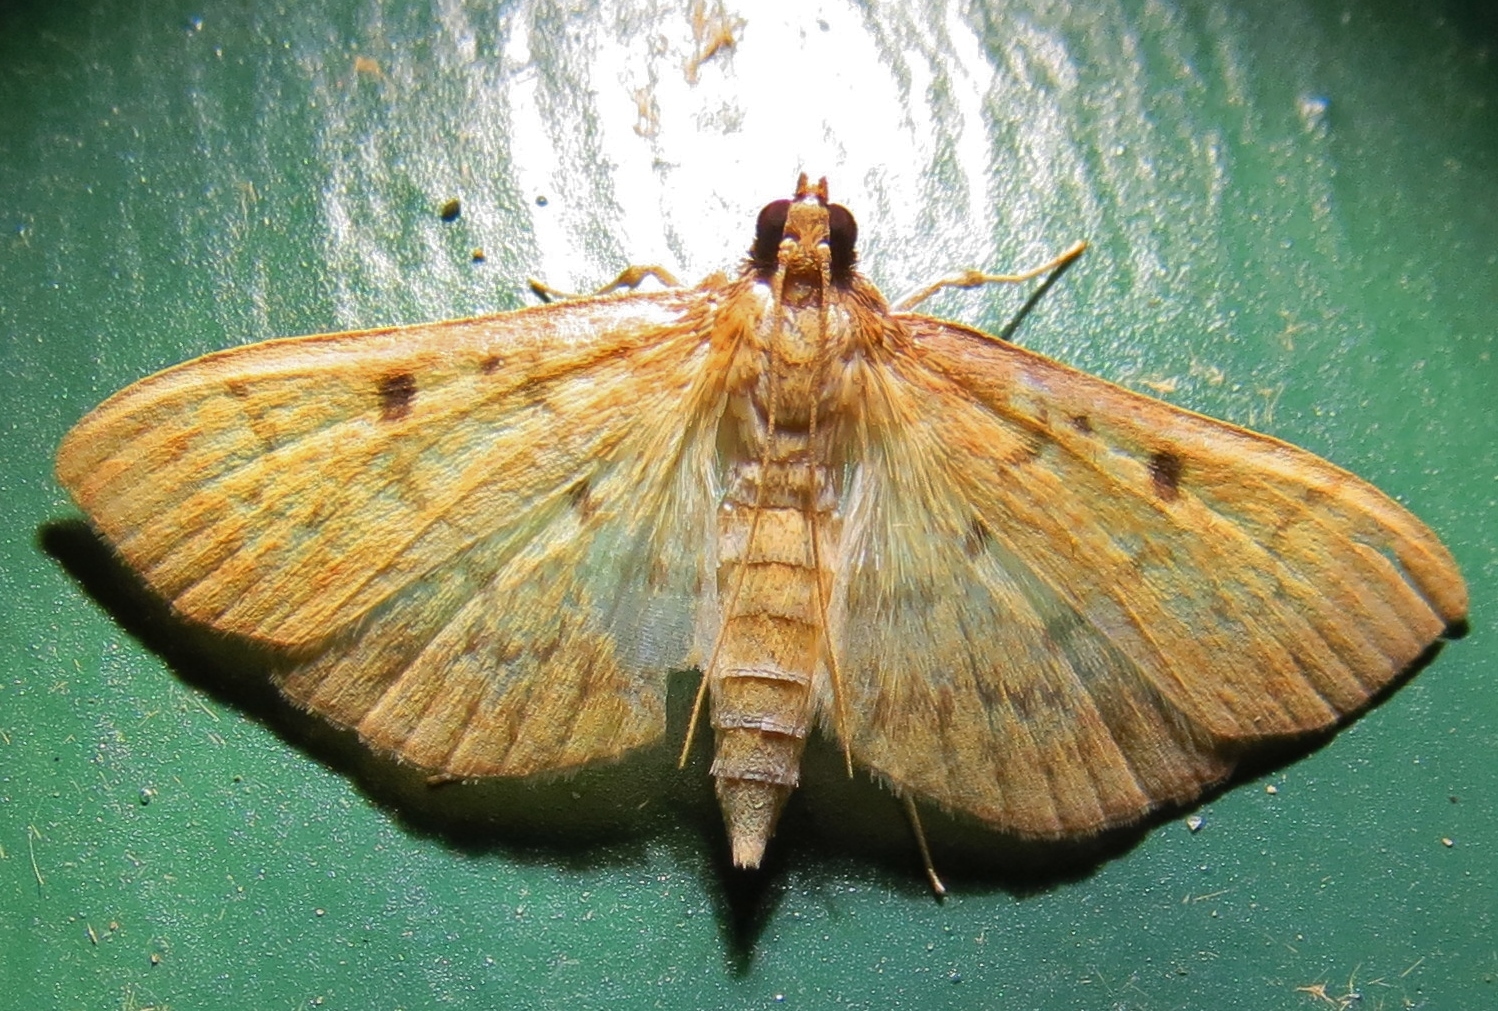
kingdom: Animalia
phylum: Arthropoda
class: Insecta
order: Lepidoptera
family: Crambidae
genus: Herpetogramma
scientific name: Herpetogramma fluctuosalis
